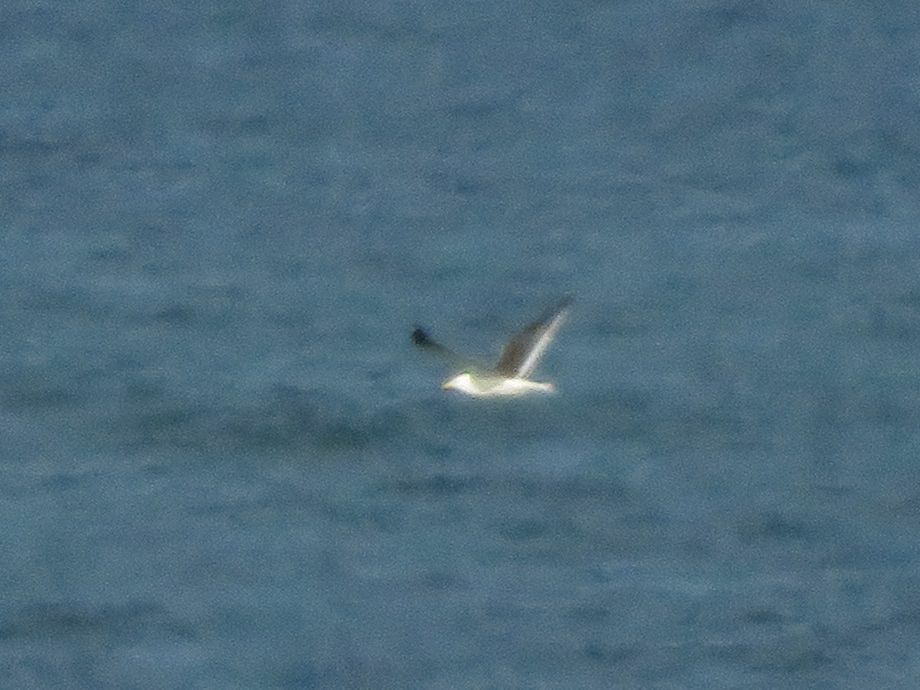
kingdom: Animalia
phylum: Chordata
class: Aves
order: Charadriiformes
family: Laridae
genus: Larus
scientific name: Larus dominicanus
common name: Kelp gull
